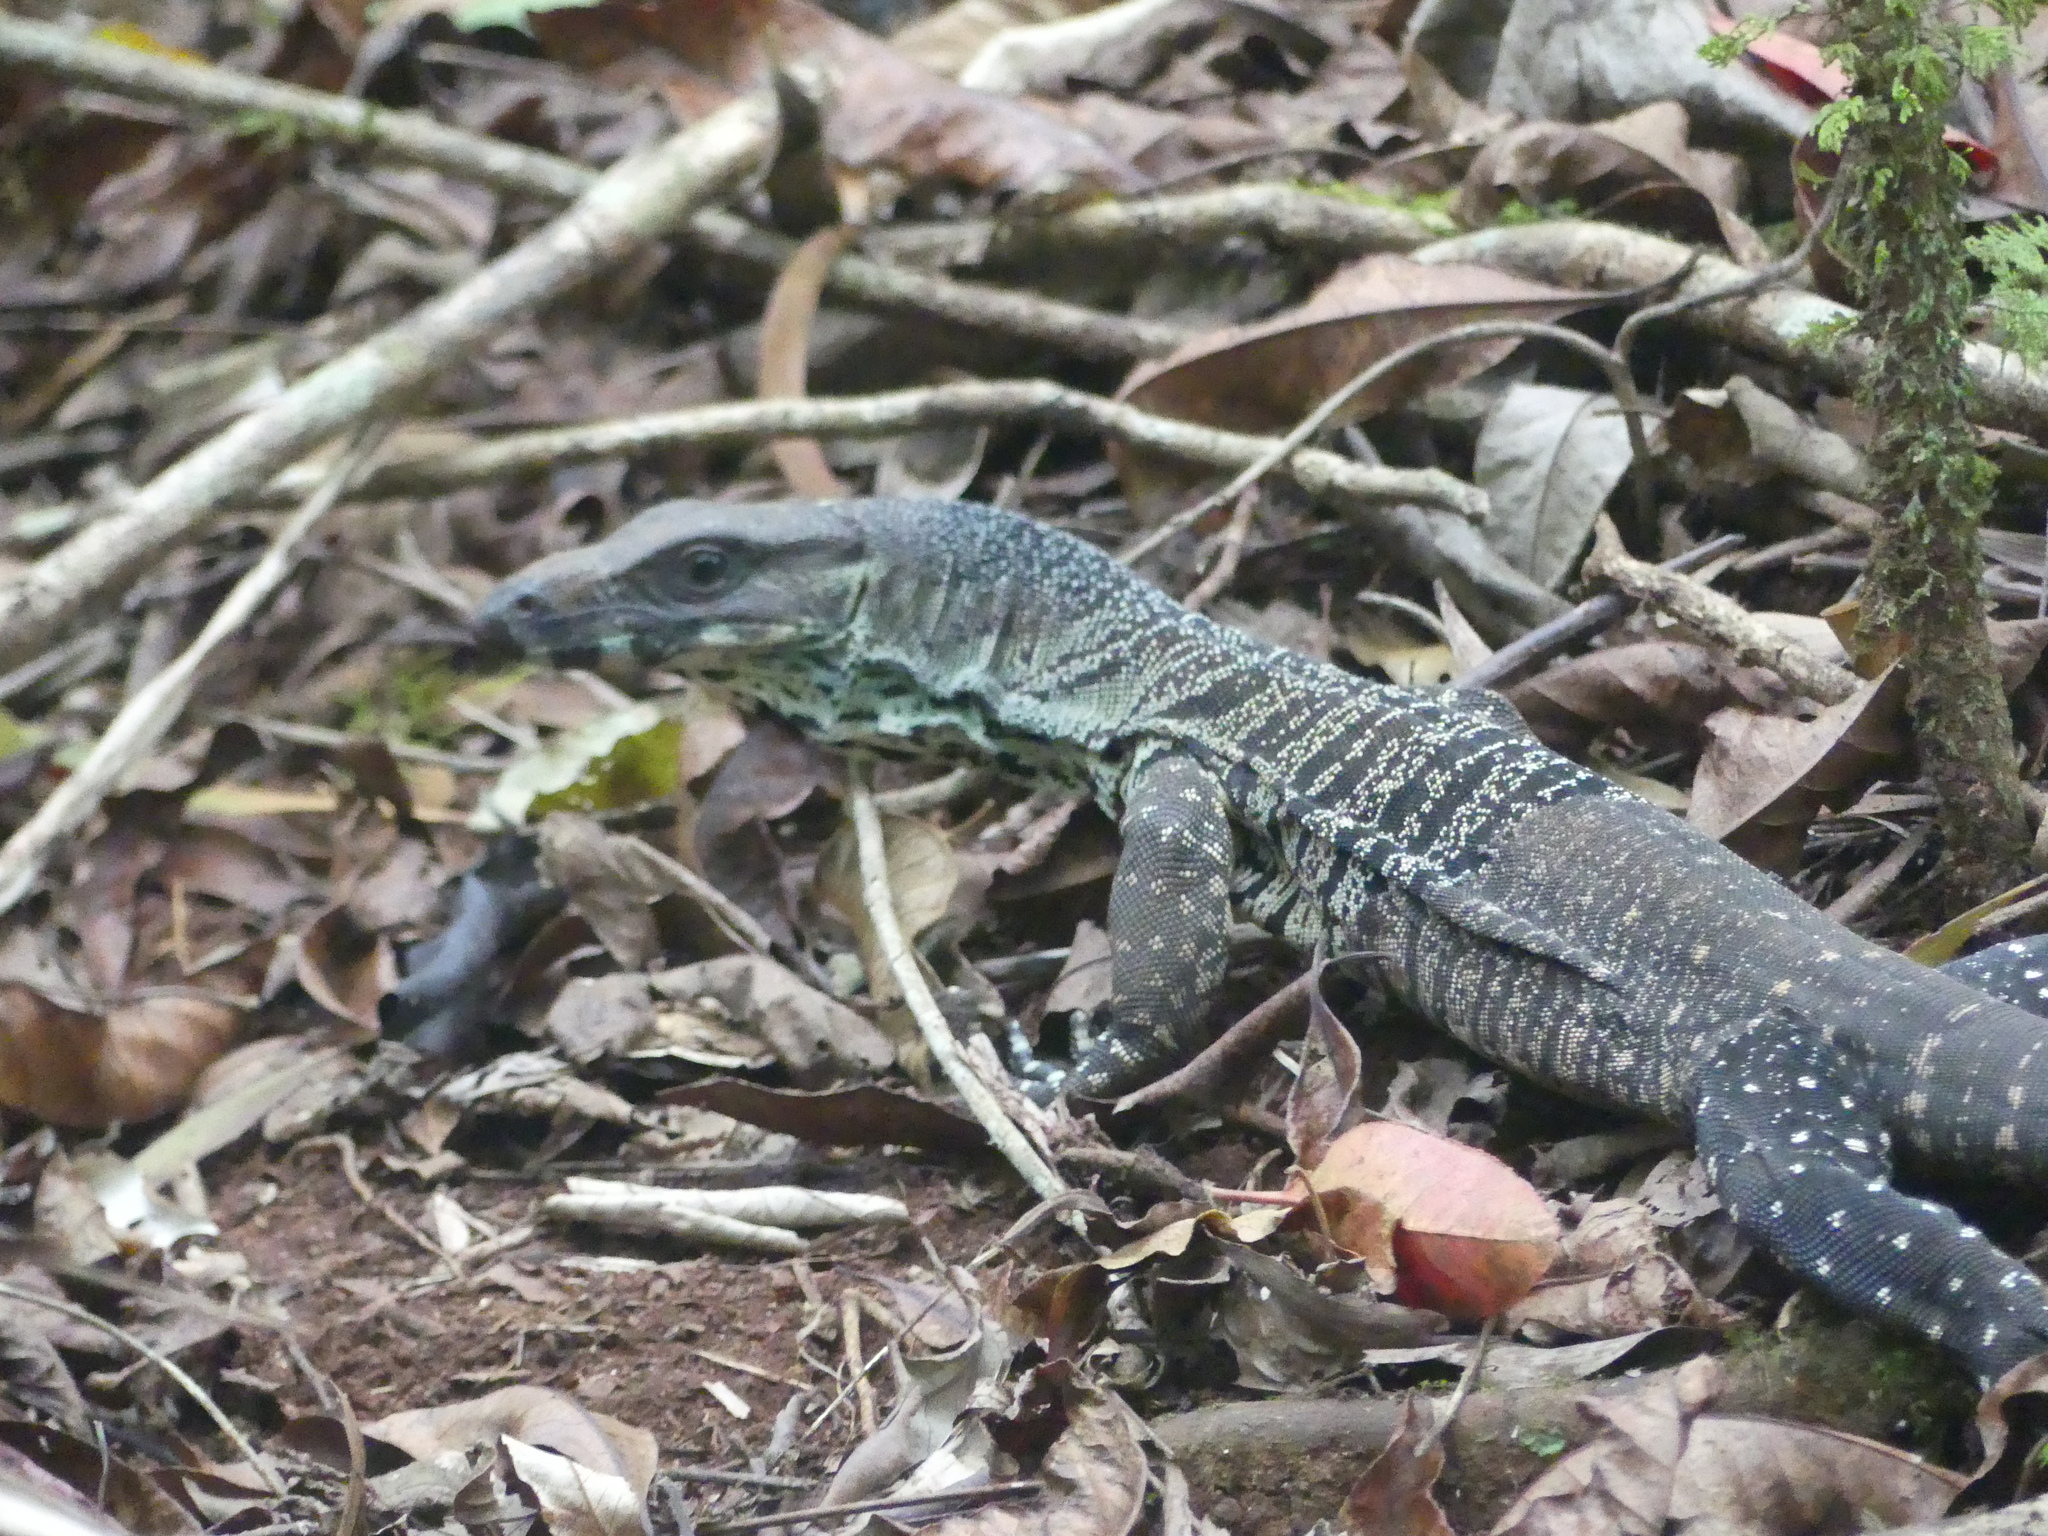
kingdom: Animalia
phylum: Chordata
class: Squamata
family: Varanidae
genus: Varanus
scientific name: Varanus varius
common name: Lace monitor
